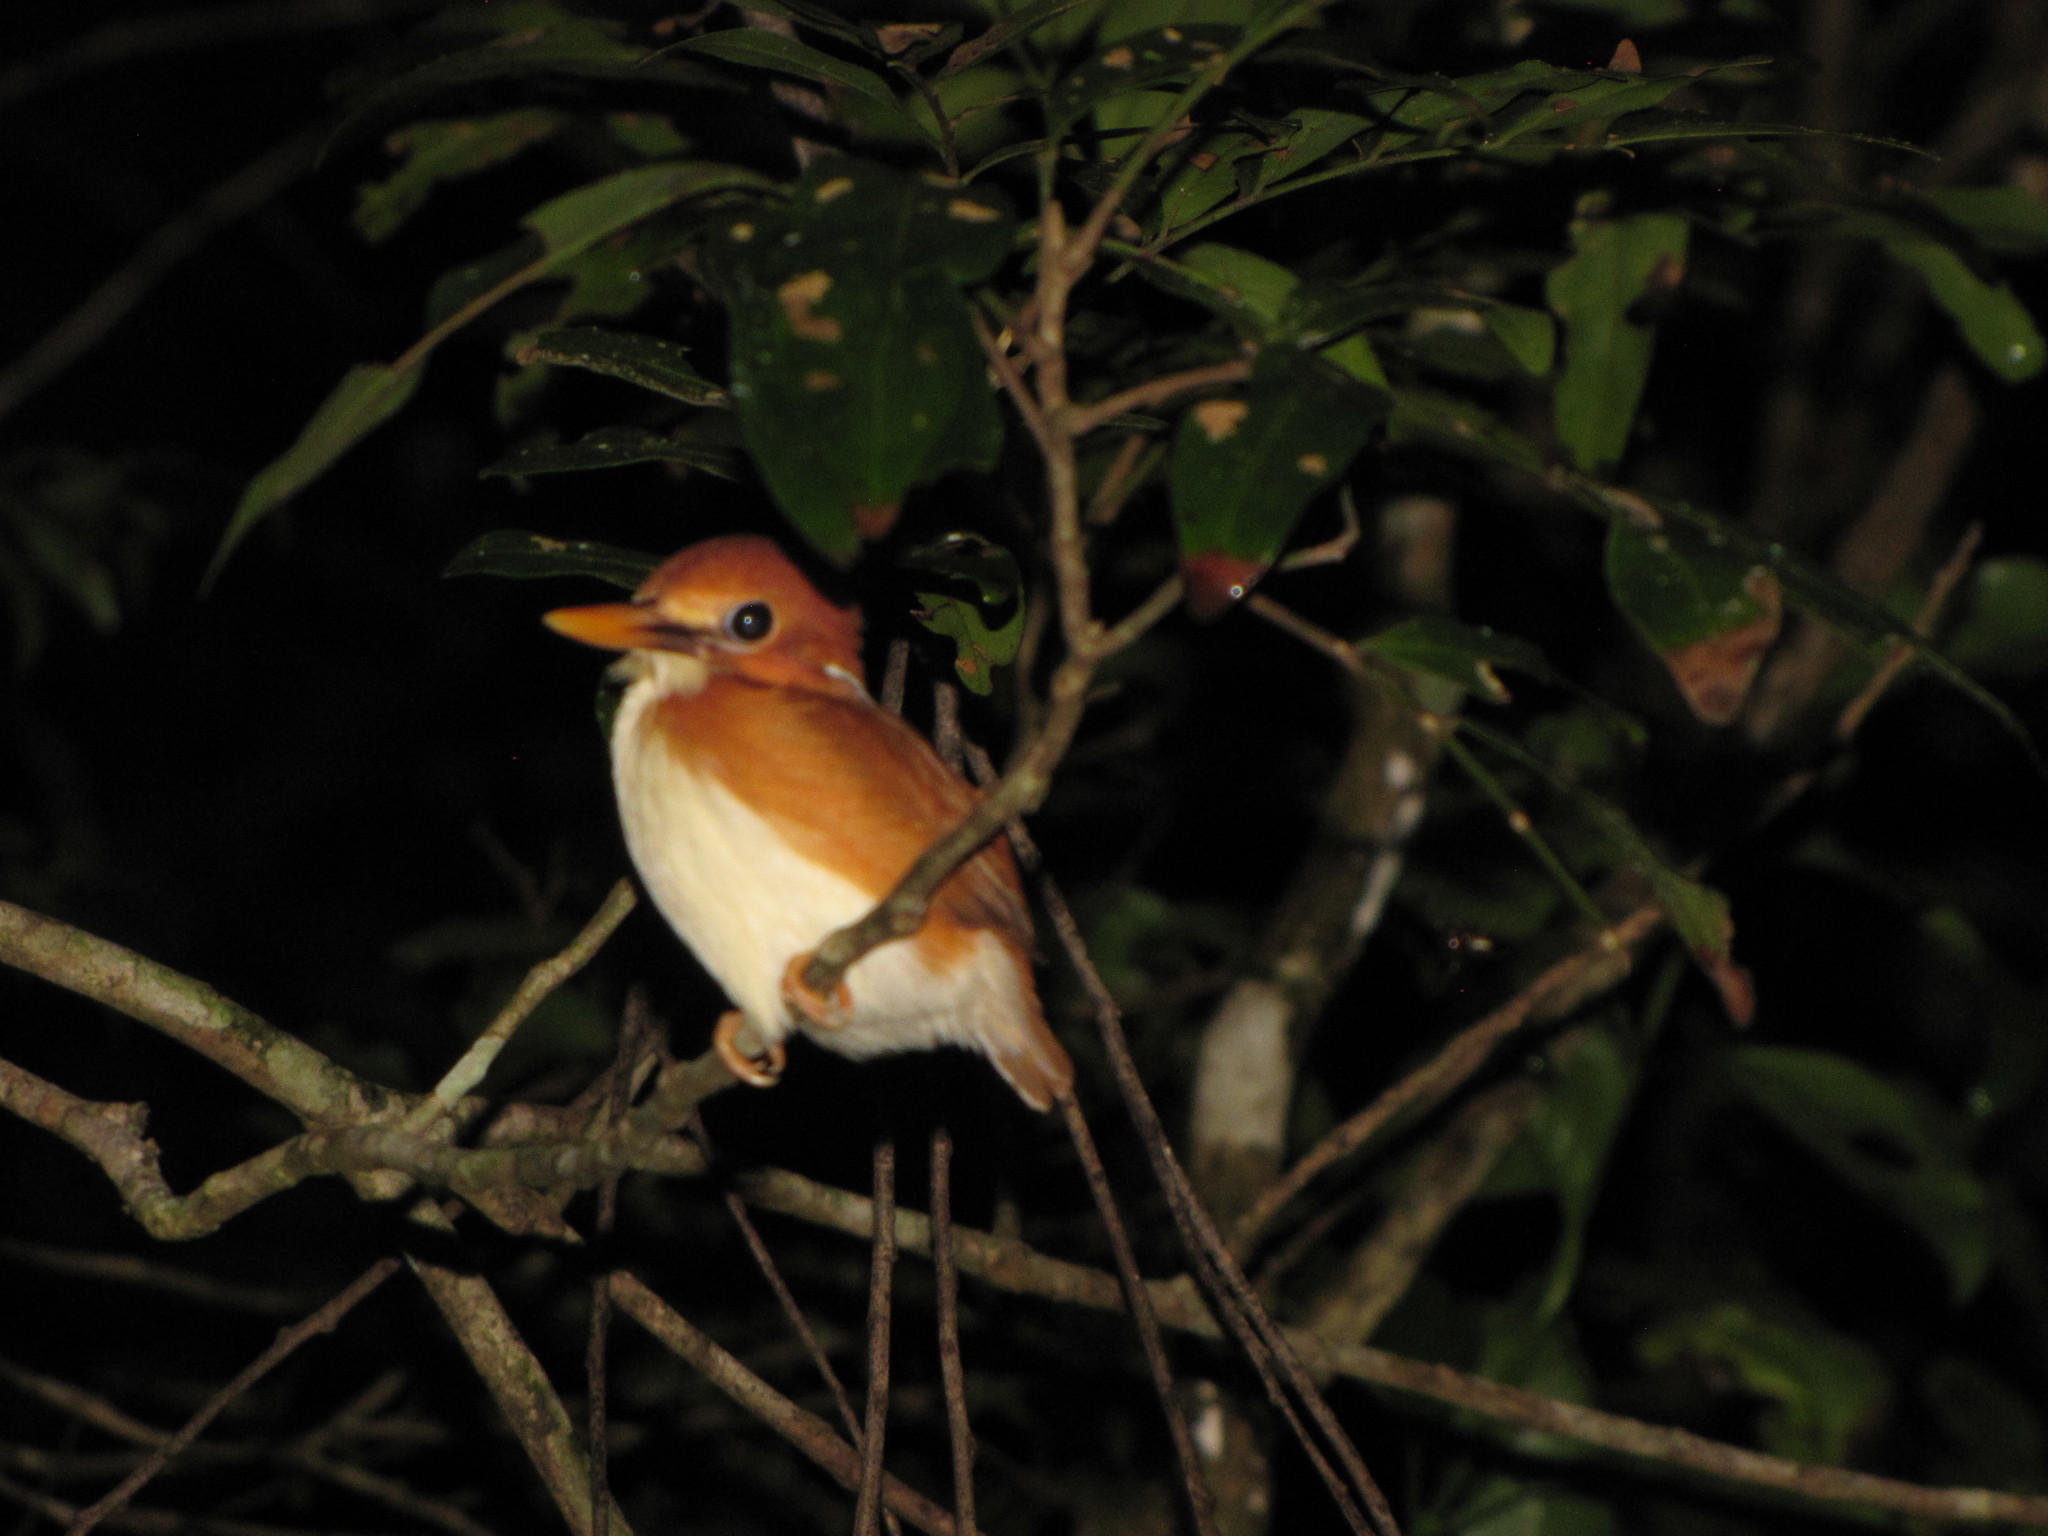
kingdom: Animalia
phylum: Chordata
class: Aves
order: Coraciiformes
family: Alcedinidae
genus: Corythornis
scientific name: Corythornis madagascariensis
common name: Madagascar pygmy-kingfisher
